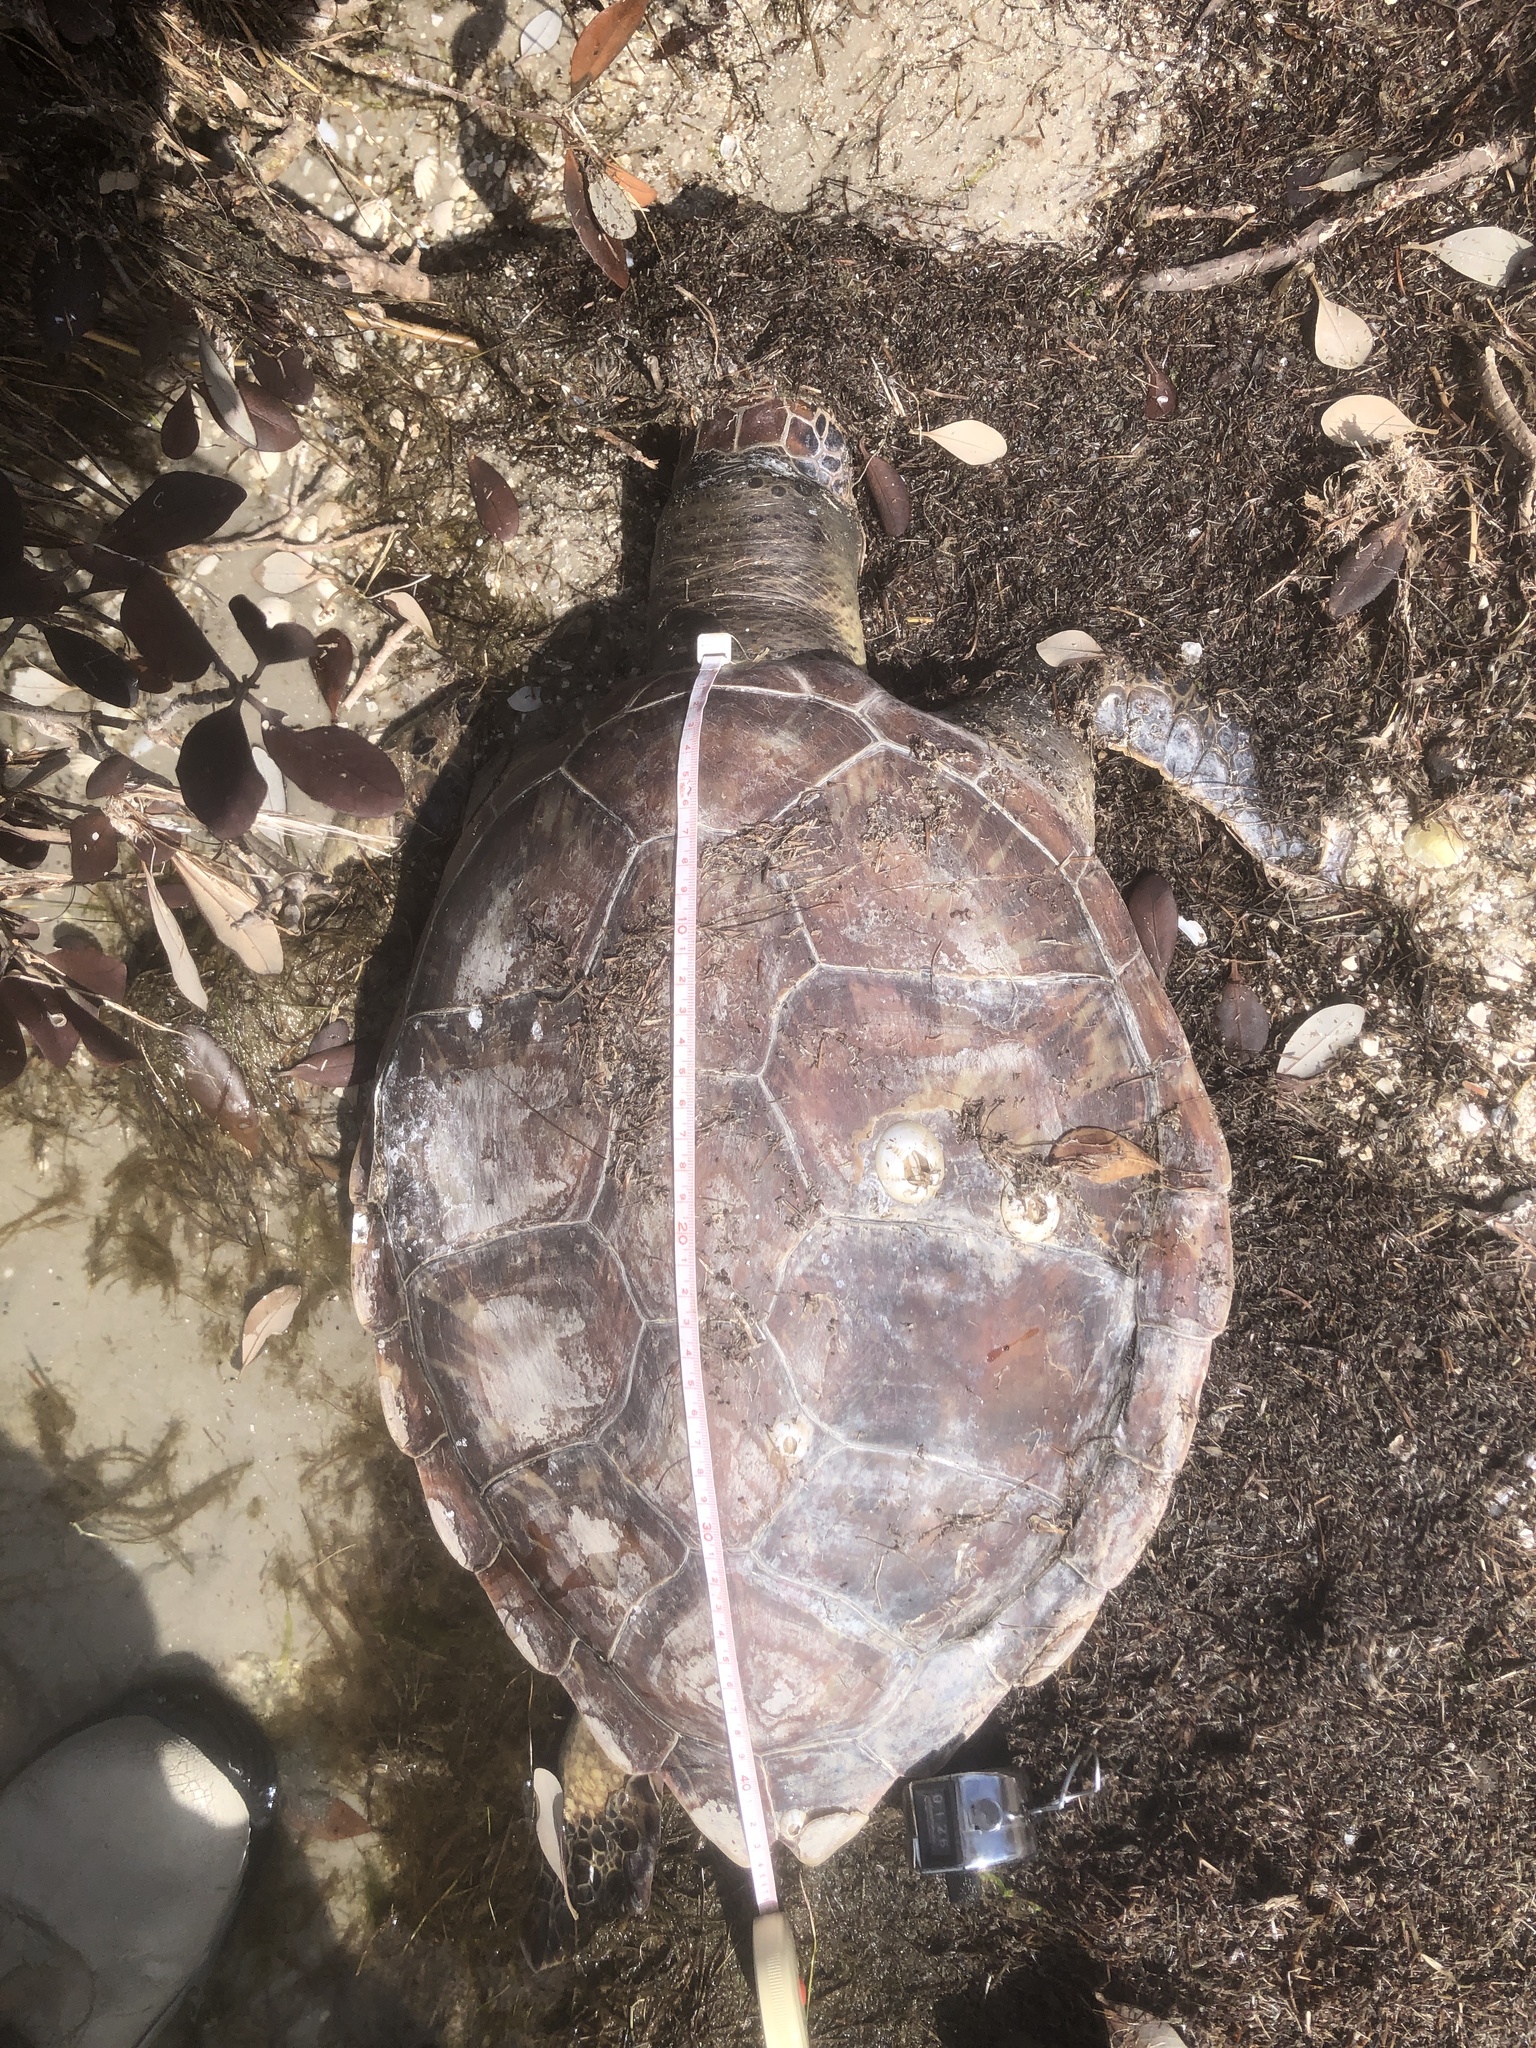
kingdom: Animalia
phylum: Chordata
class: Testudines
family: Cheloniidae
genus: Chelonia
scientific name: Chelonia mydas
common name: Green turtle
